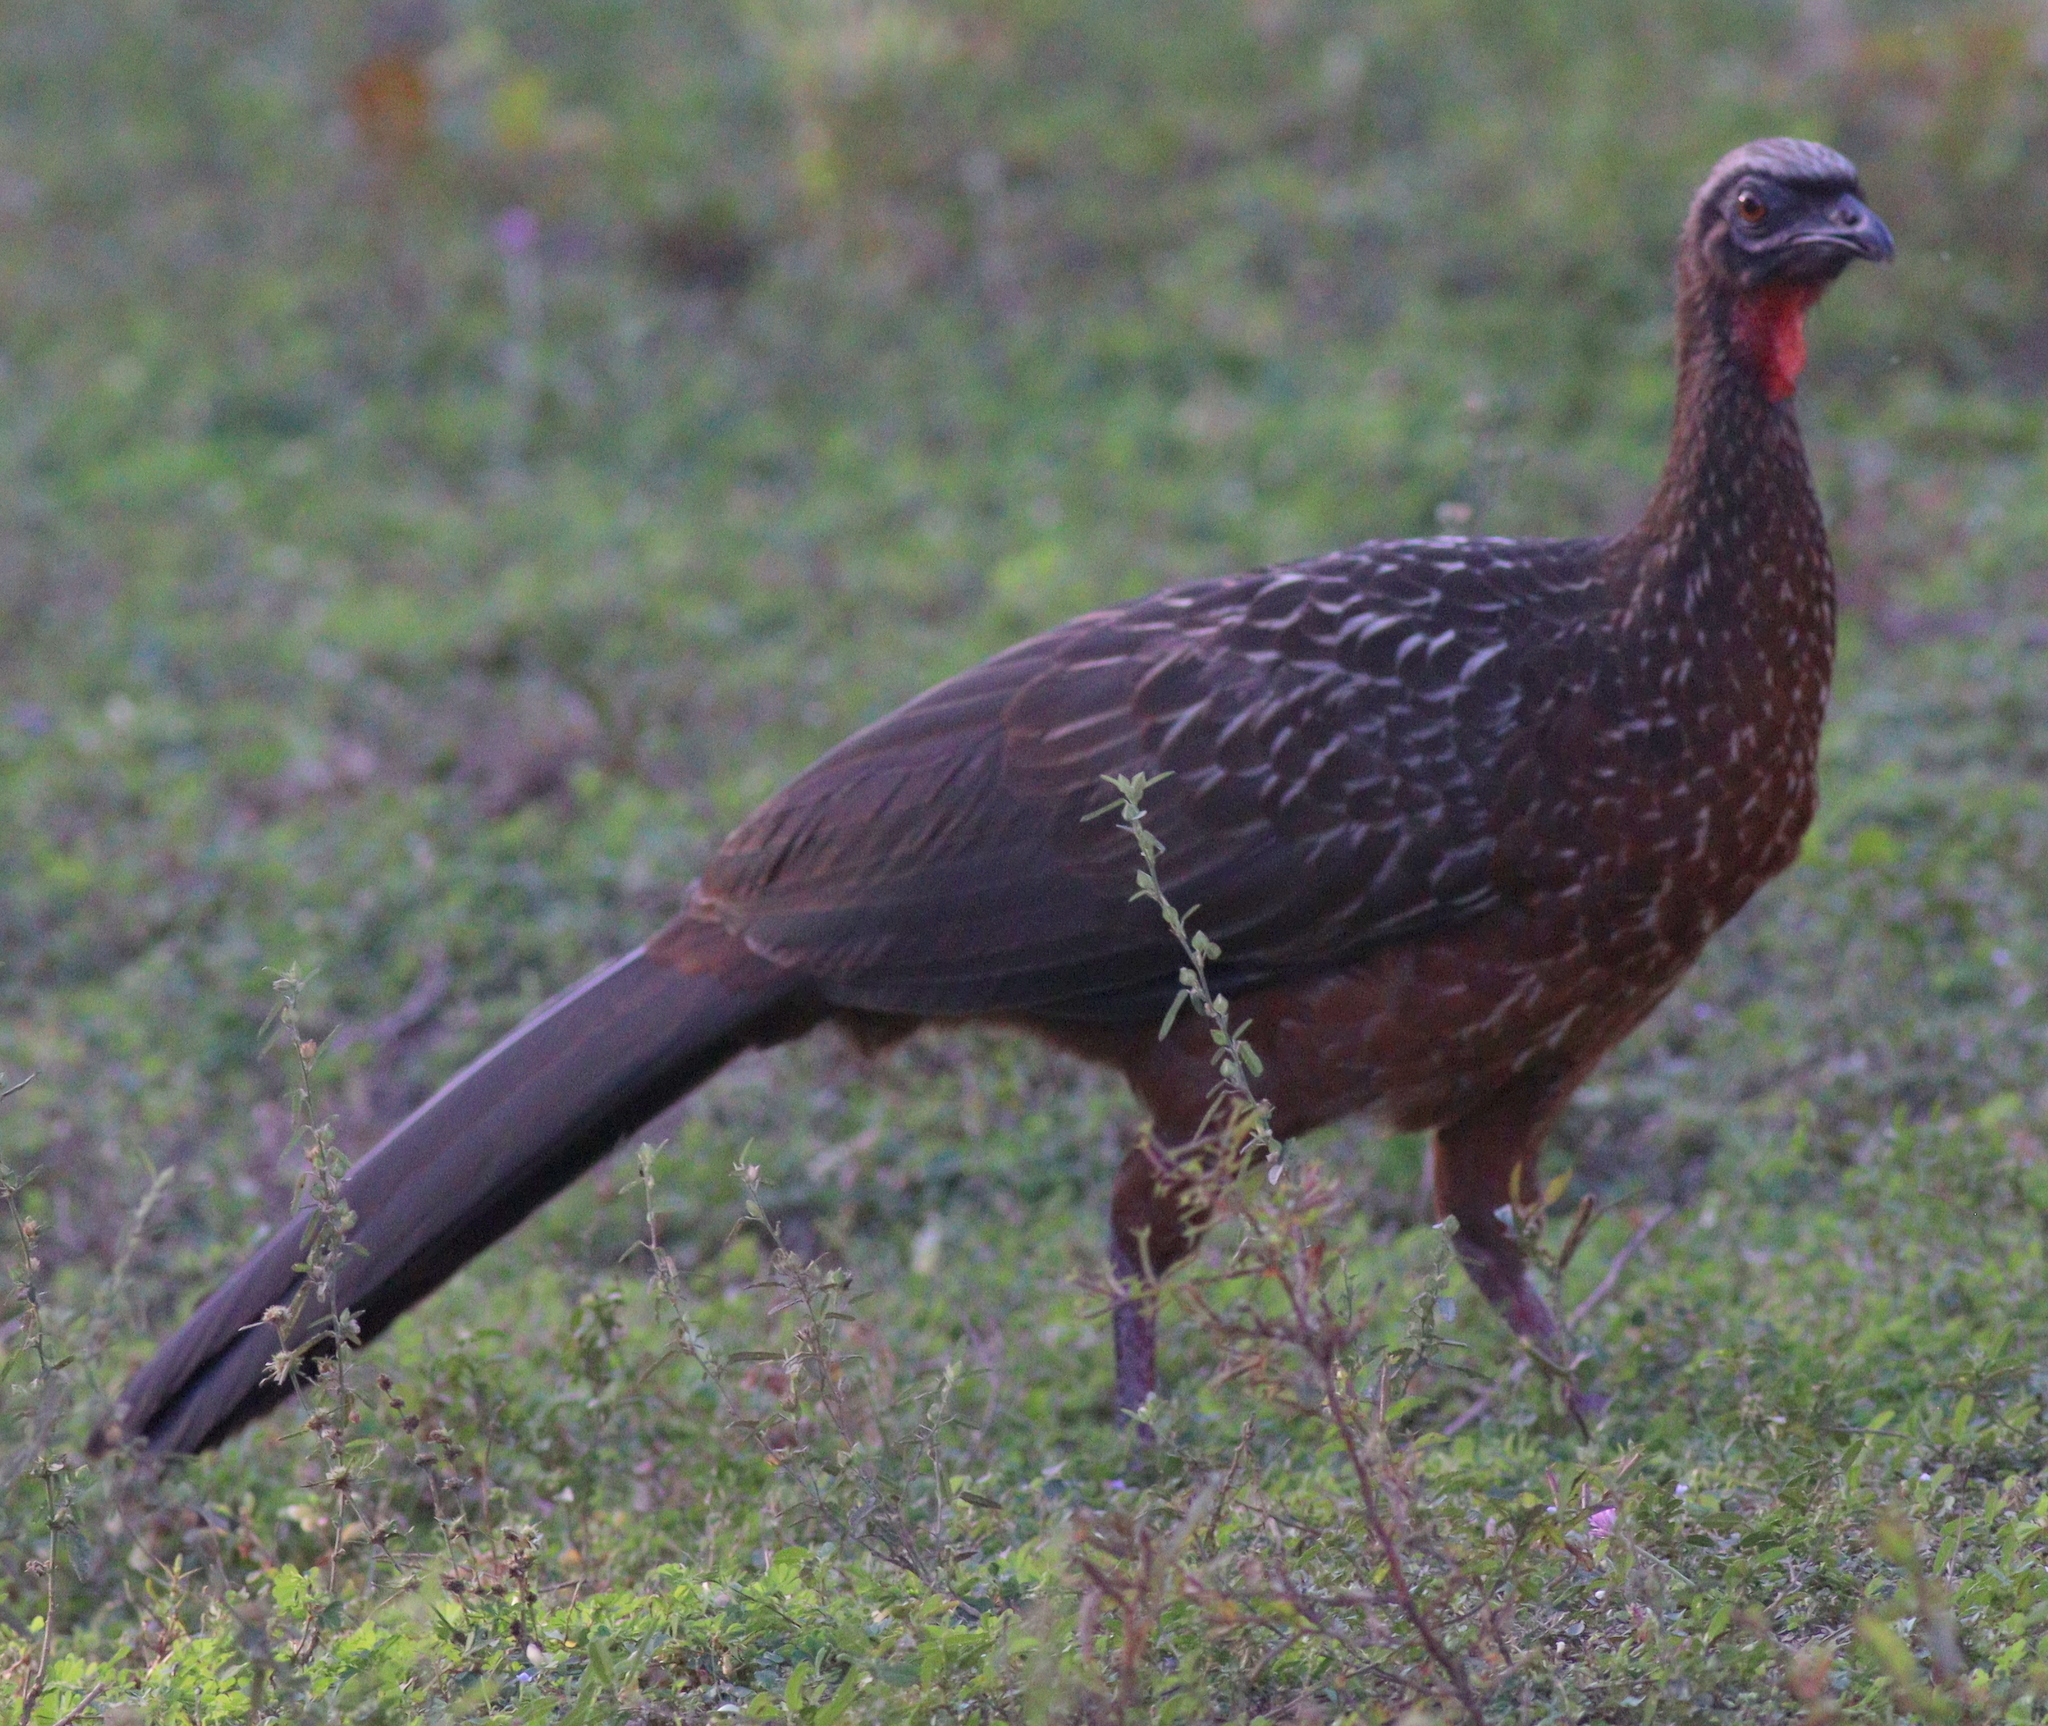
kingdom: Animalia
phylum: Chordata
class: Aves
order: Galliformes
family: Cracidae
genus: Penelope
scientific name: Penelope ochrogaster
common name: Chestnut-bellied guan
